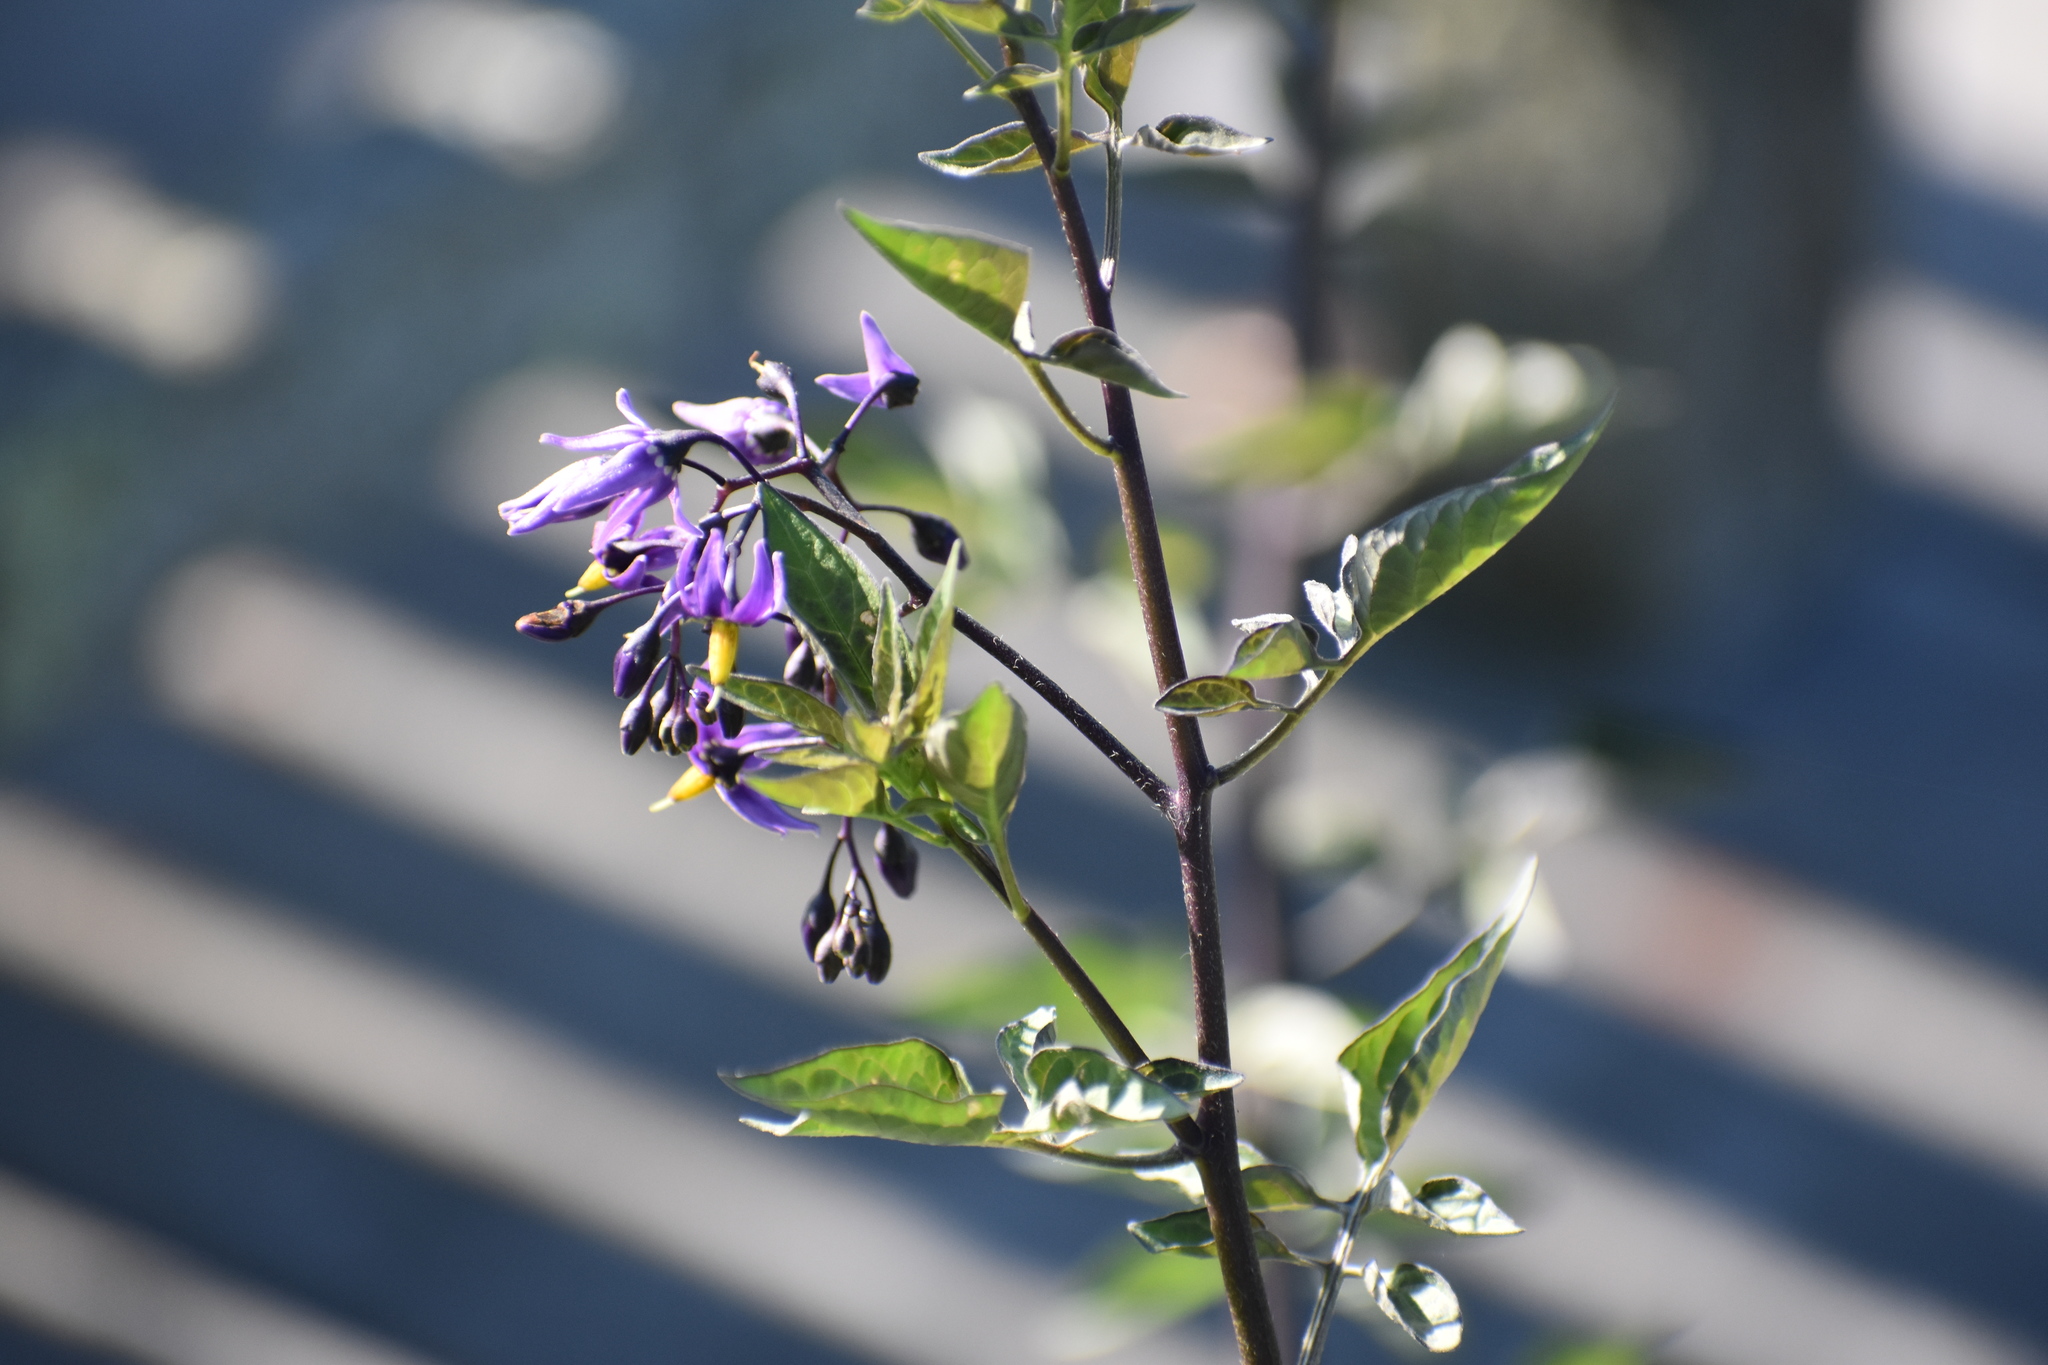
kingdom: Plantae
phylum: Tracheophyta
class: Magnoliopsida
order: Solanales
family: Solanaceae
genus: Solanum
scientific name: Solanum dulcamara
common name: Climbing nightshade
